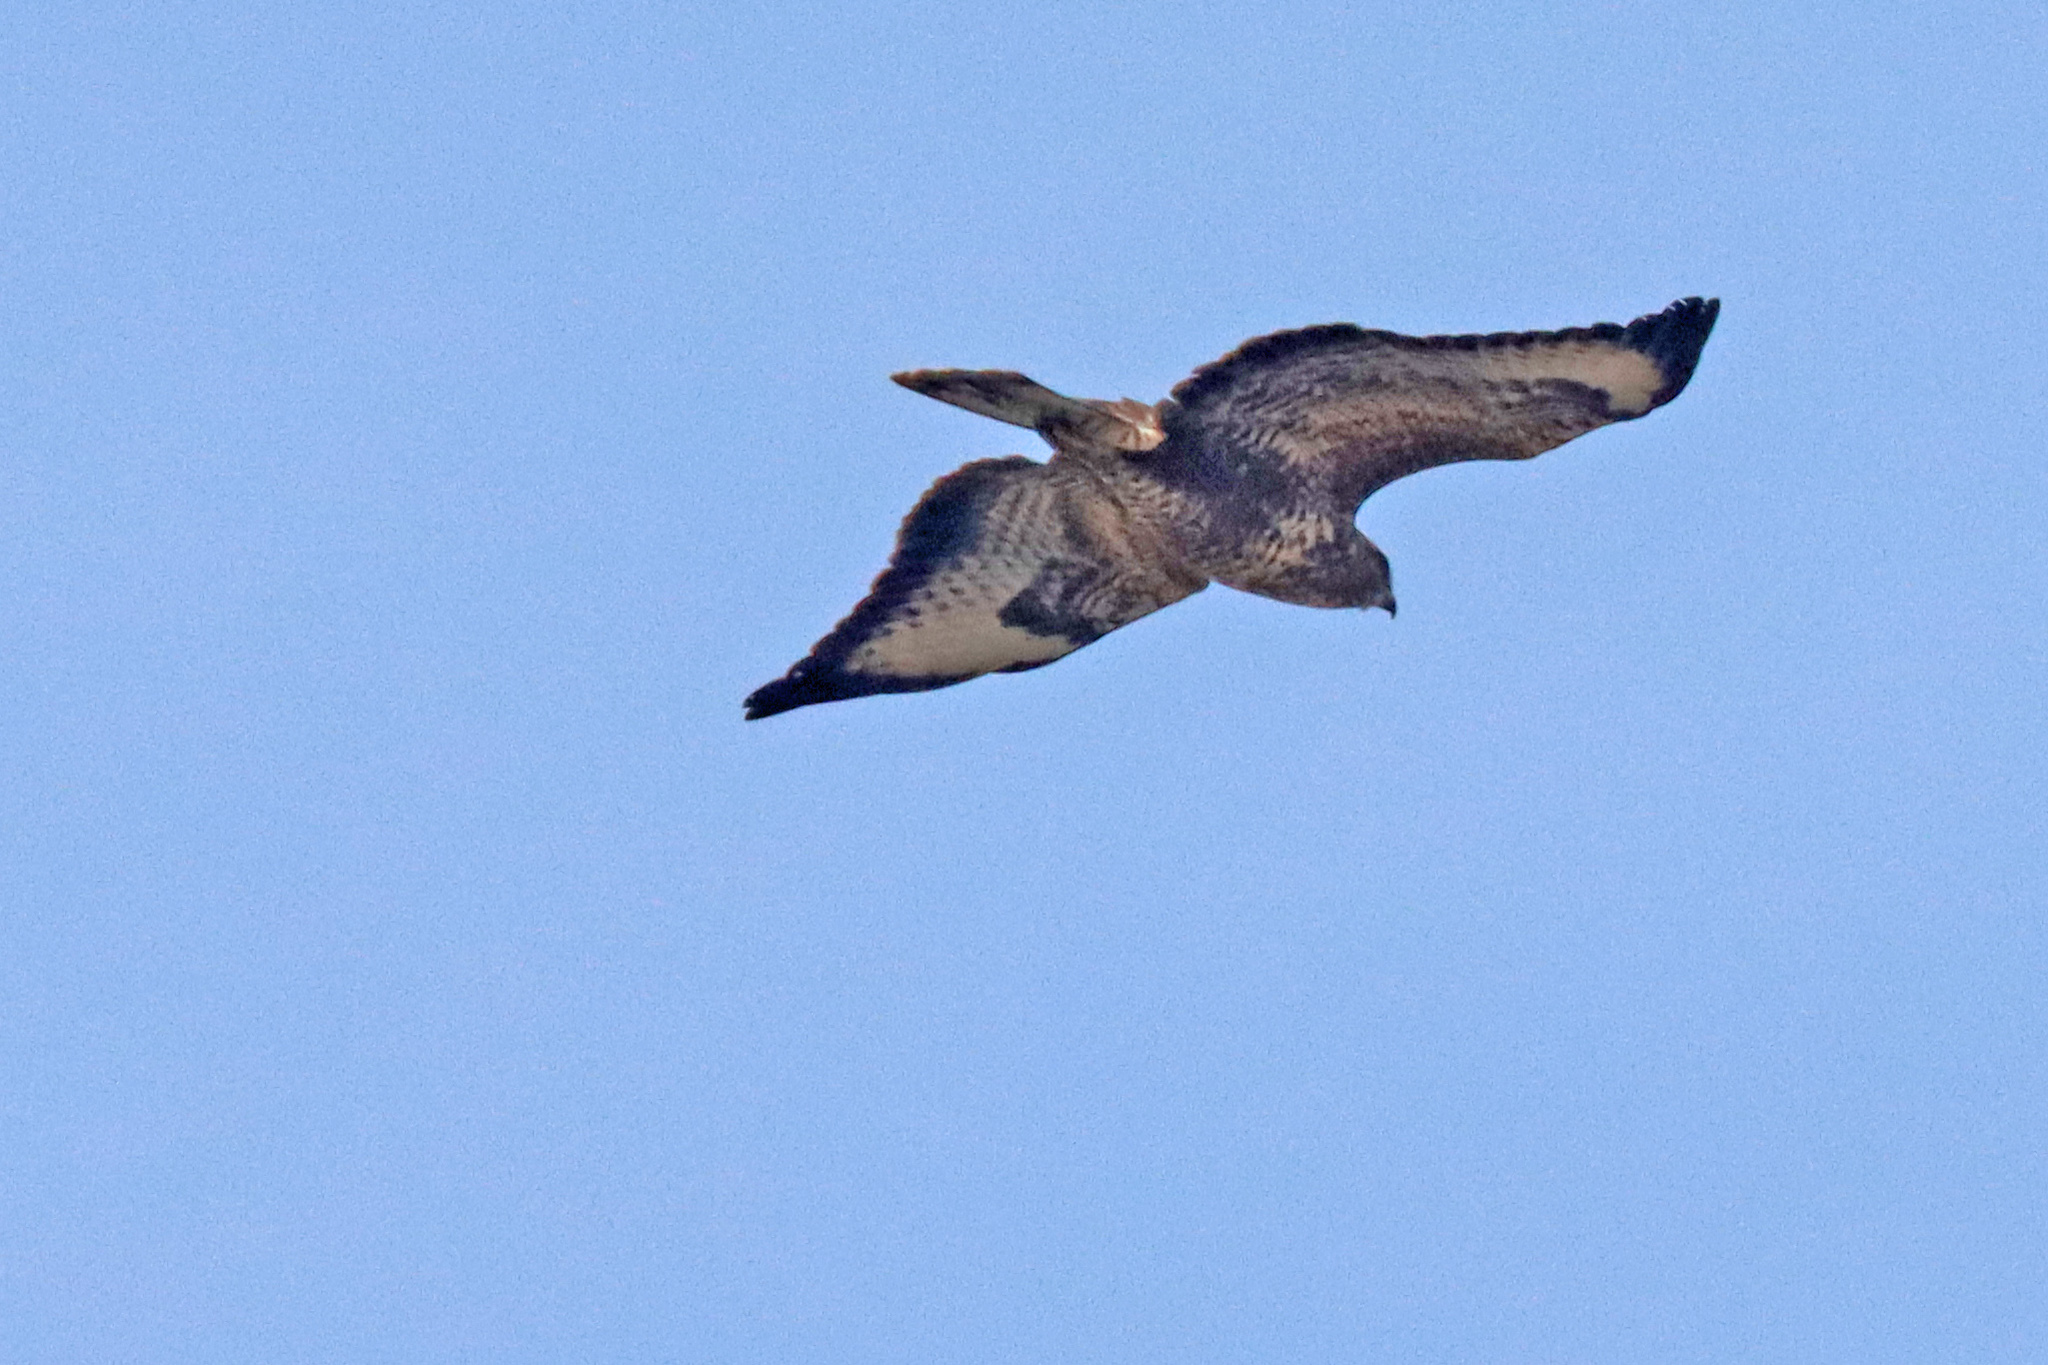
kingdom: Animalia
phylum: Chordata
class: Aves
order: Accipitriformes
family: Accipitridae
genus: Buteo
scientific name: Buteo buteo
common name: Common buzzard
